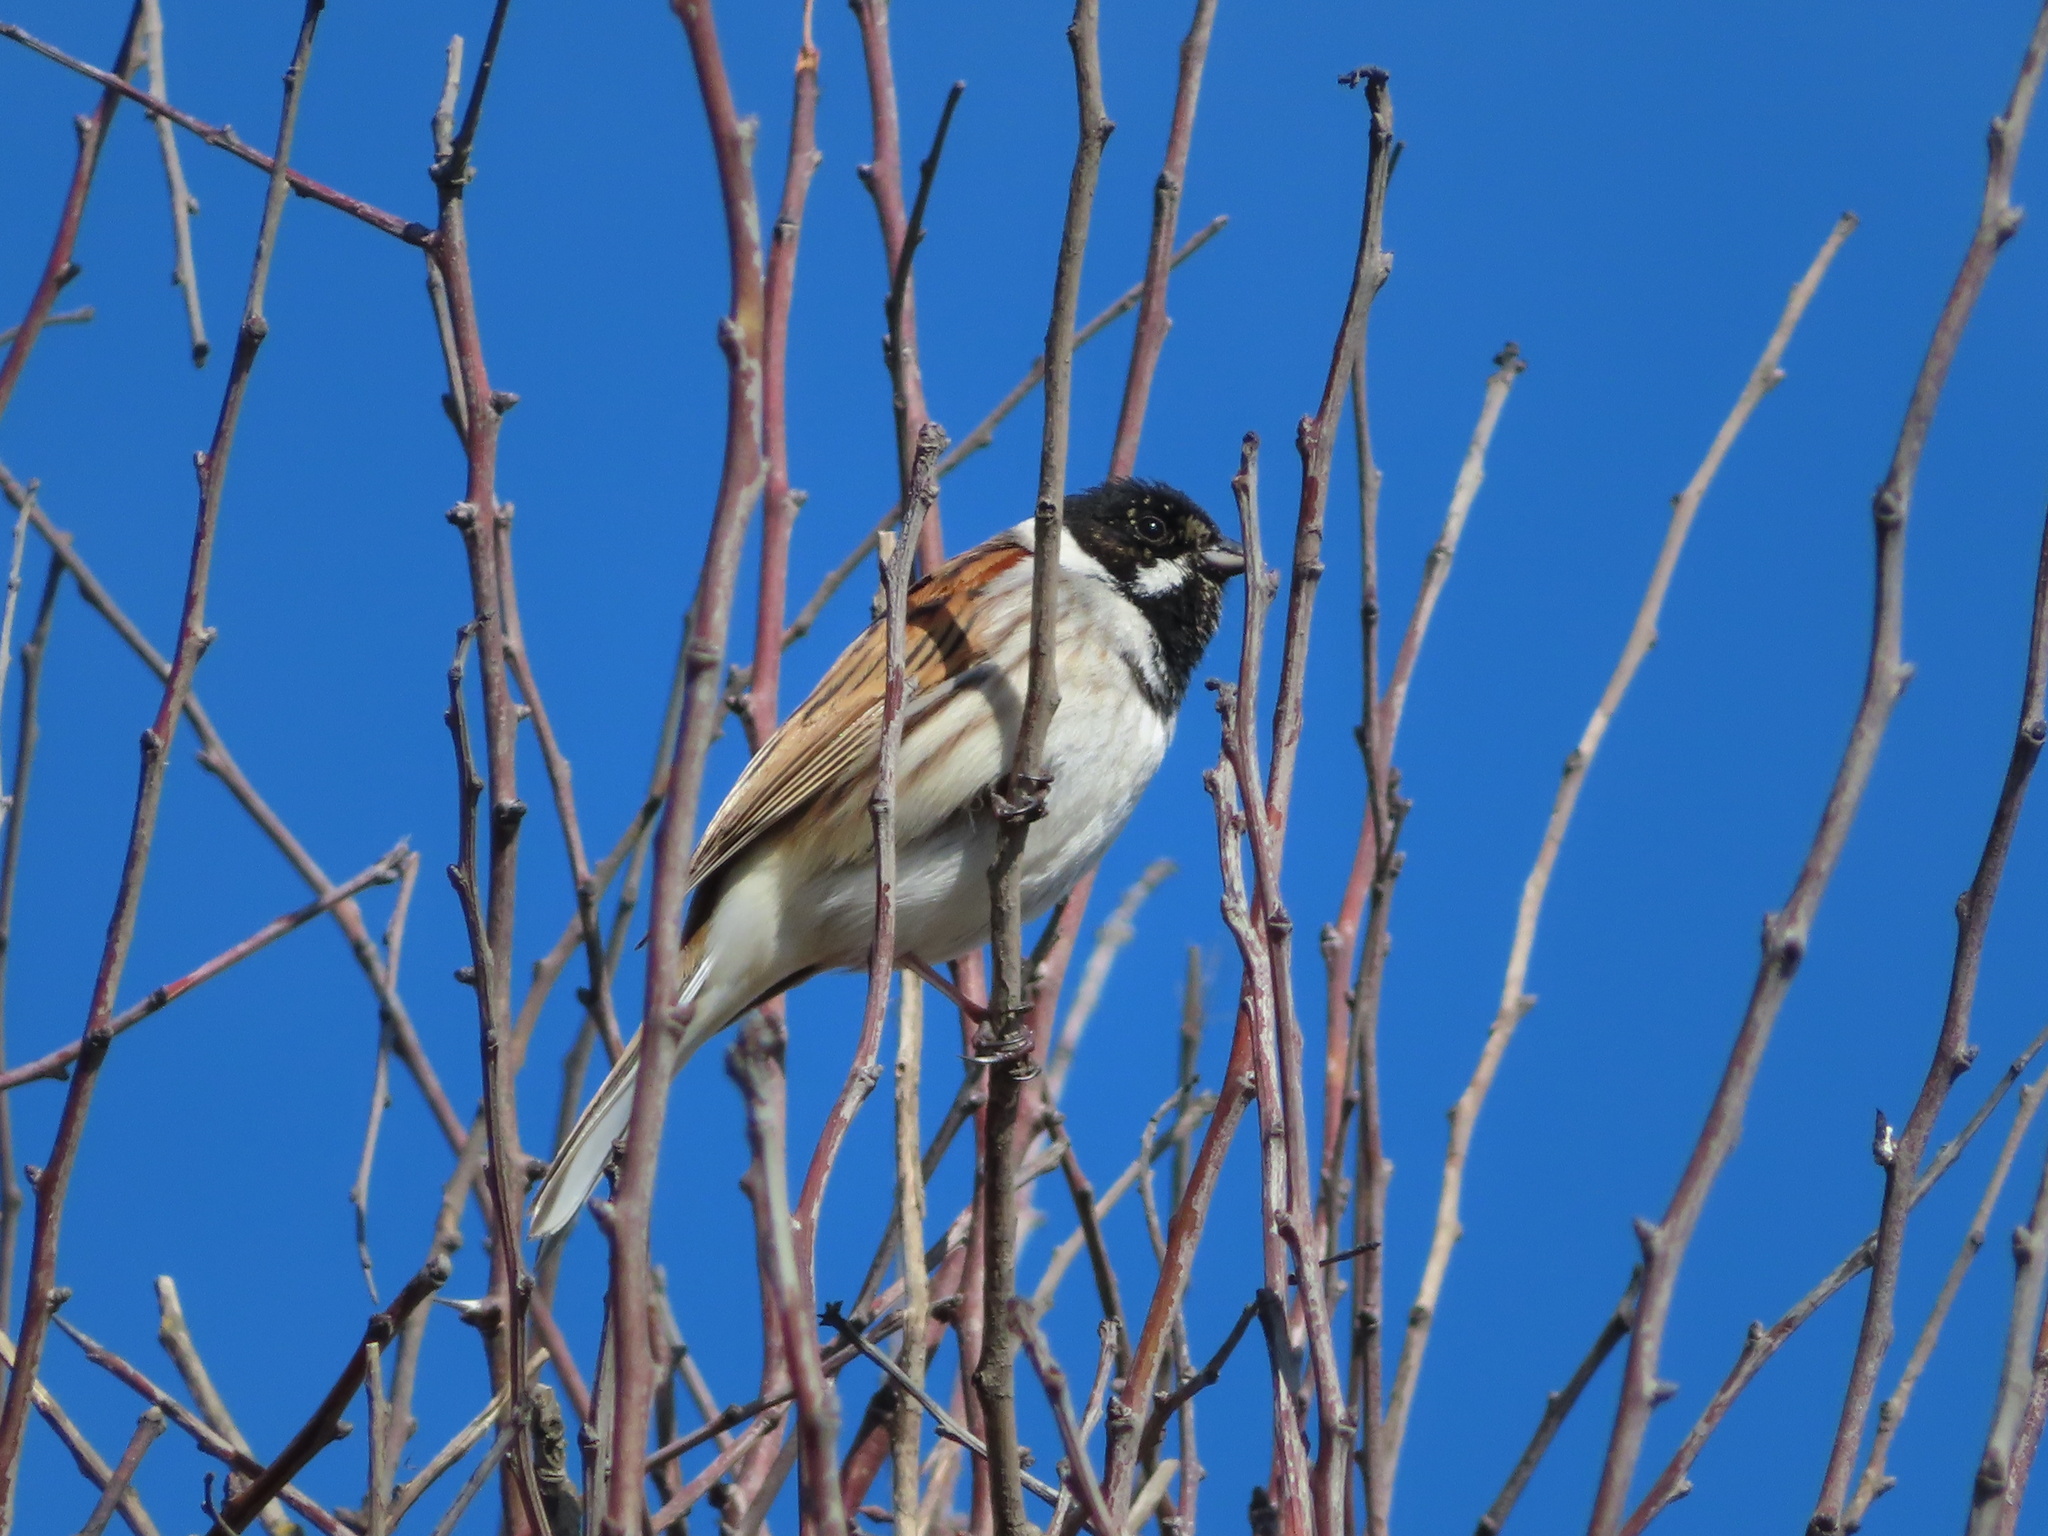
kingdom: Animalia
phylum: Chordata
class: Aves
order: Passeriformes
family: Emberizidae
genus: Emberiza
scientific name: Emberiza schoeniclus
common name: Reed bunting
